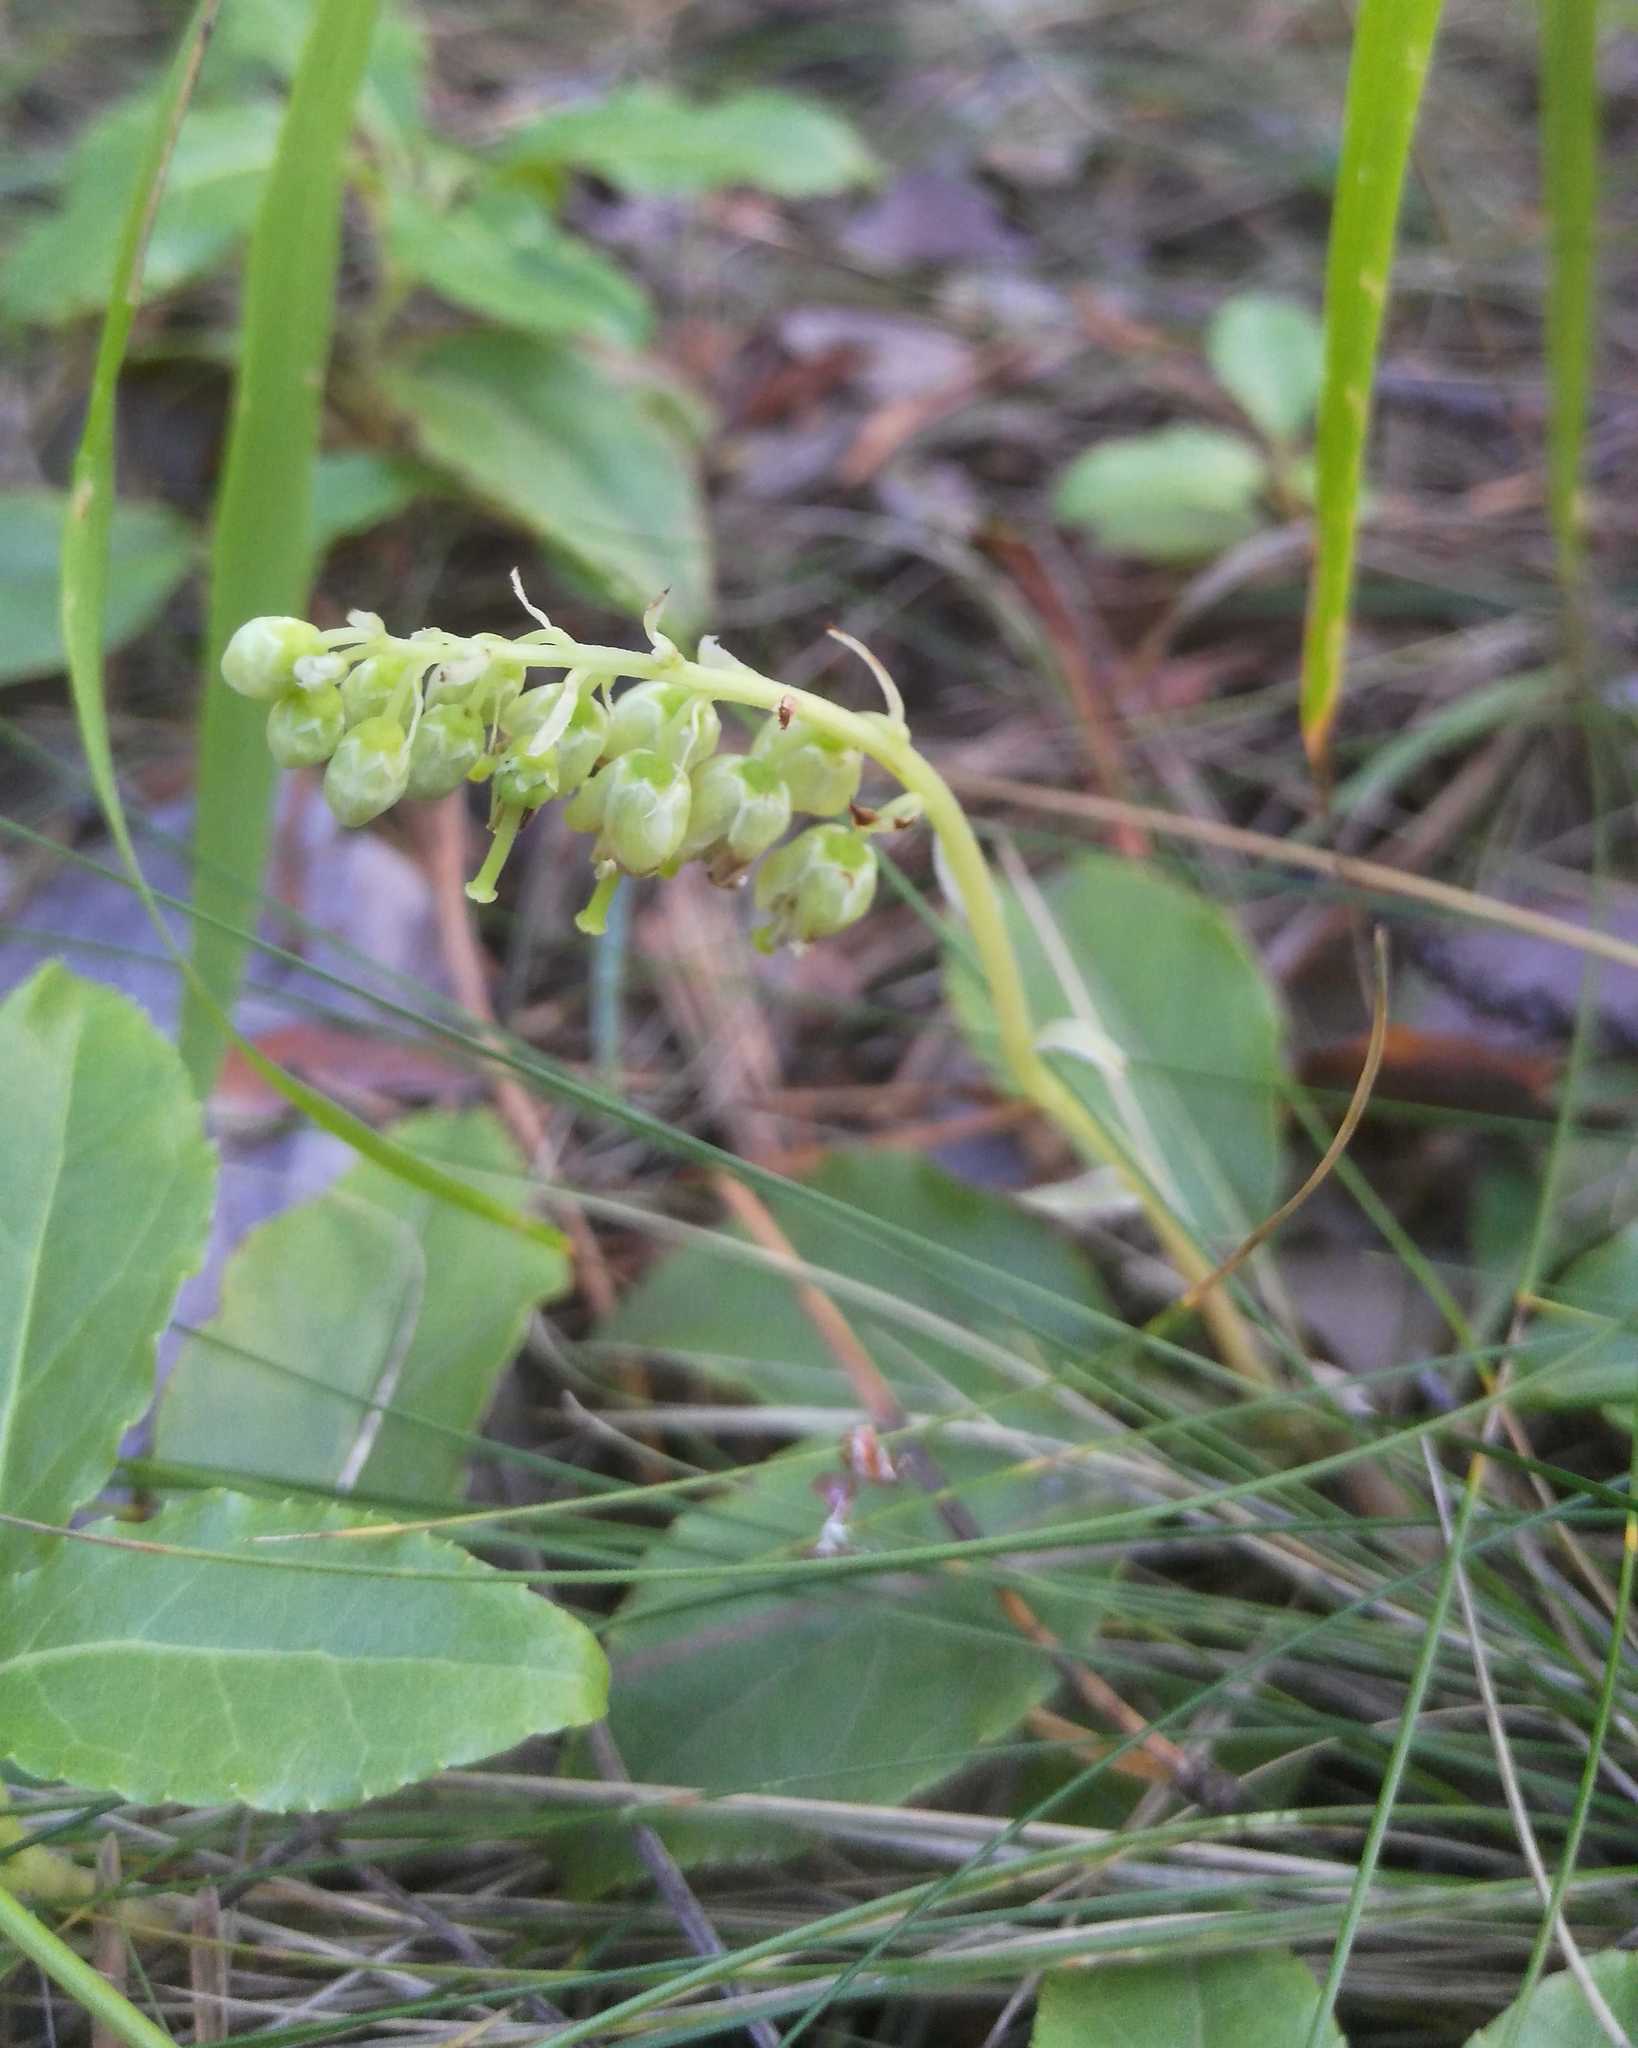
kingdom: Plantae
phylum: Tracheophyta
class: Magnoliopsida
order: Ericales
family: Ericaceae
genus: Orthilia
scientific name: Orthilia secunda
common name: One-sided orthilia
